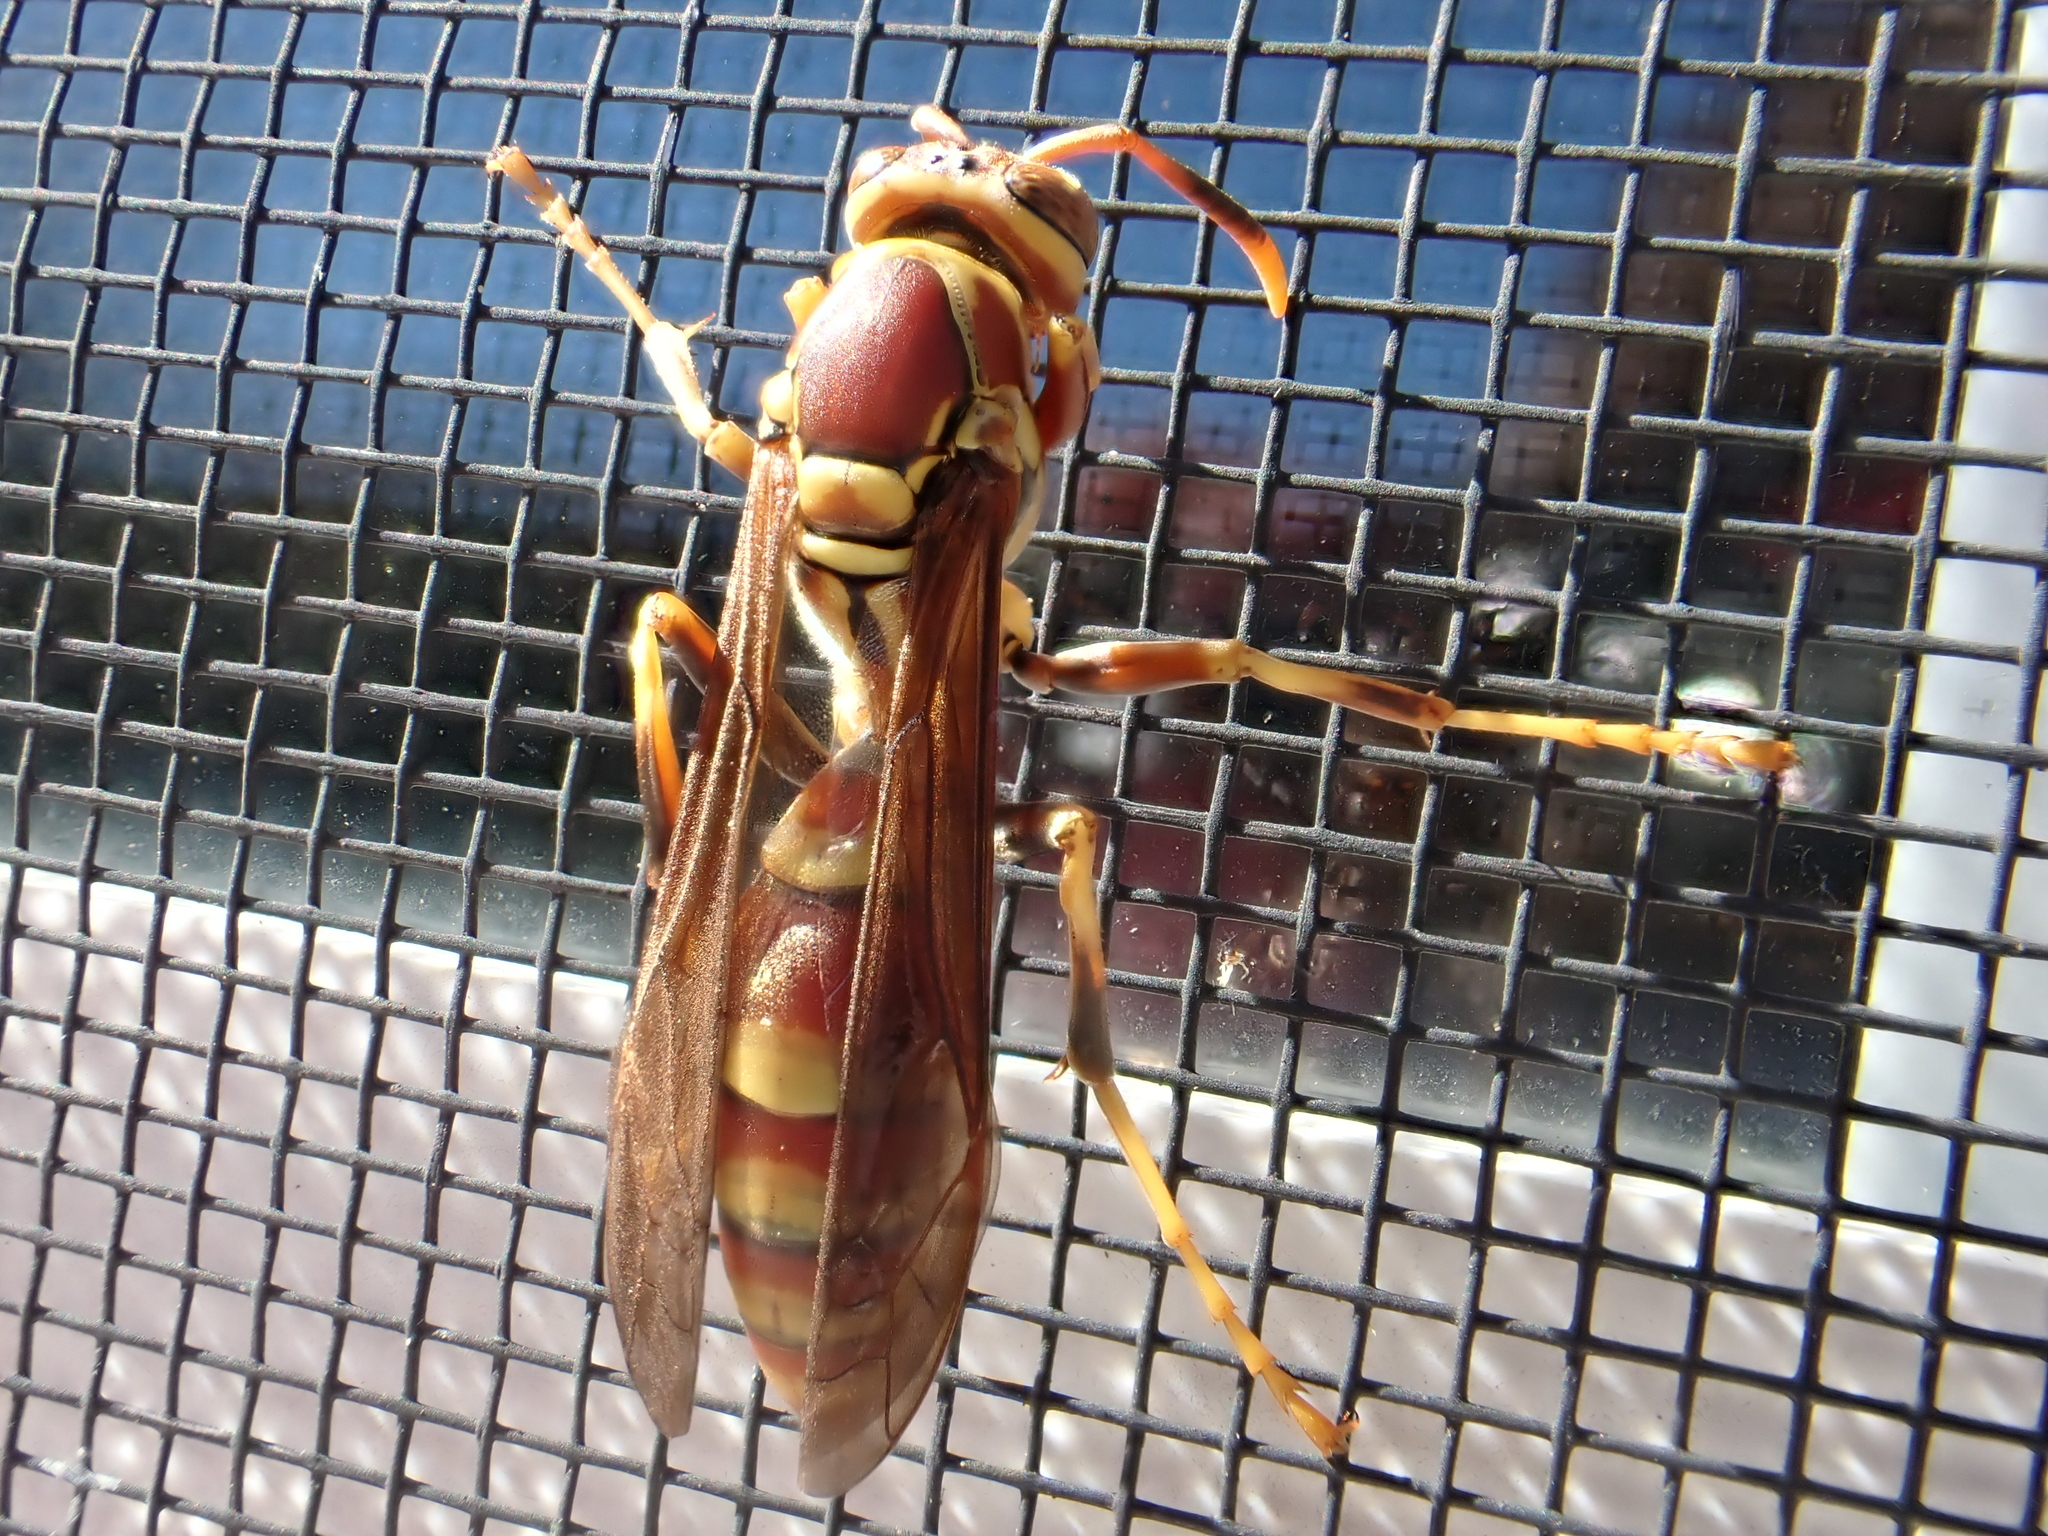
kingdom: Animalia
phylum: Arthropoda
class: Insecta
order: Hymenoptera
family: Eumenidae
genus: Polistes
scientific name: Polistes exclamans
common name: Paper wasp
